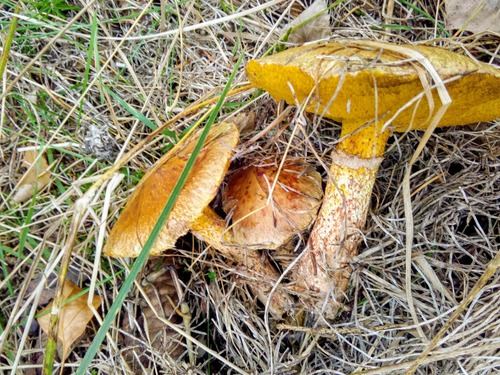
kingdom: Fungi
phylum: Basidiomycota
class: Agaricomycetes
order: Boletales
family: Suillaceae
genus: Suillus
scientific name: Suillus americanus
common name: Chicken fat mushroom
